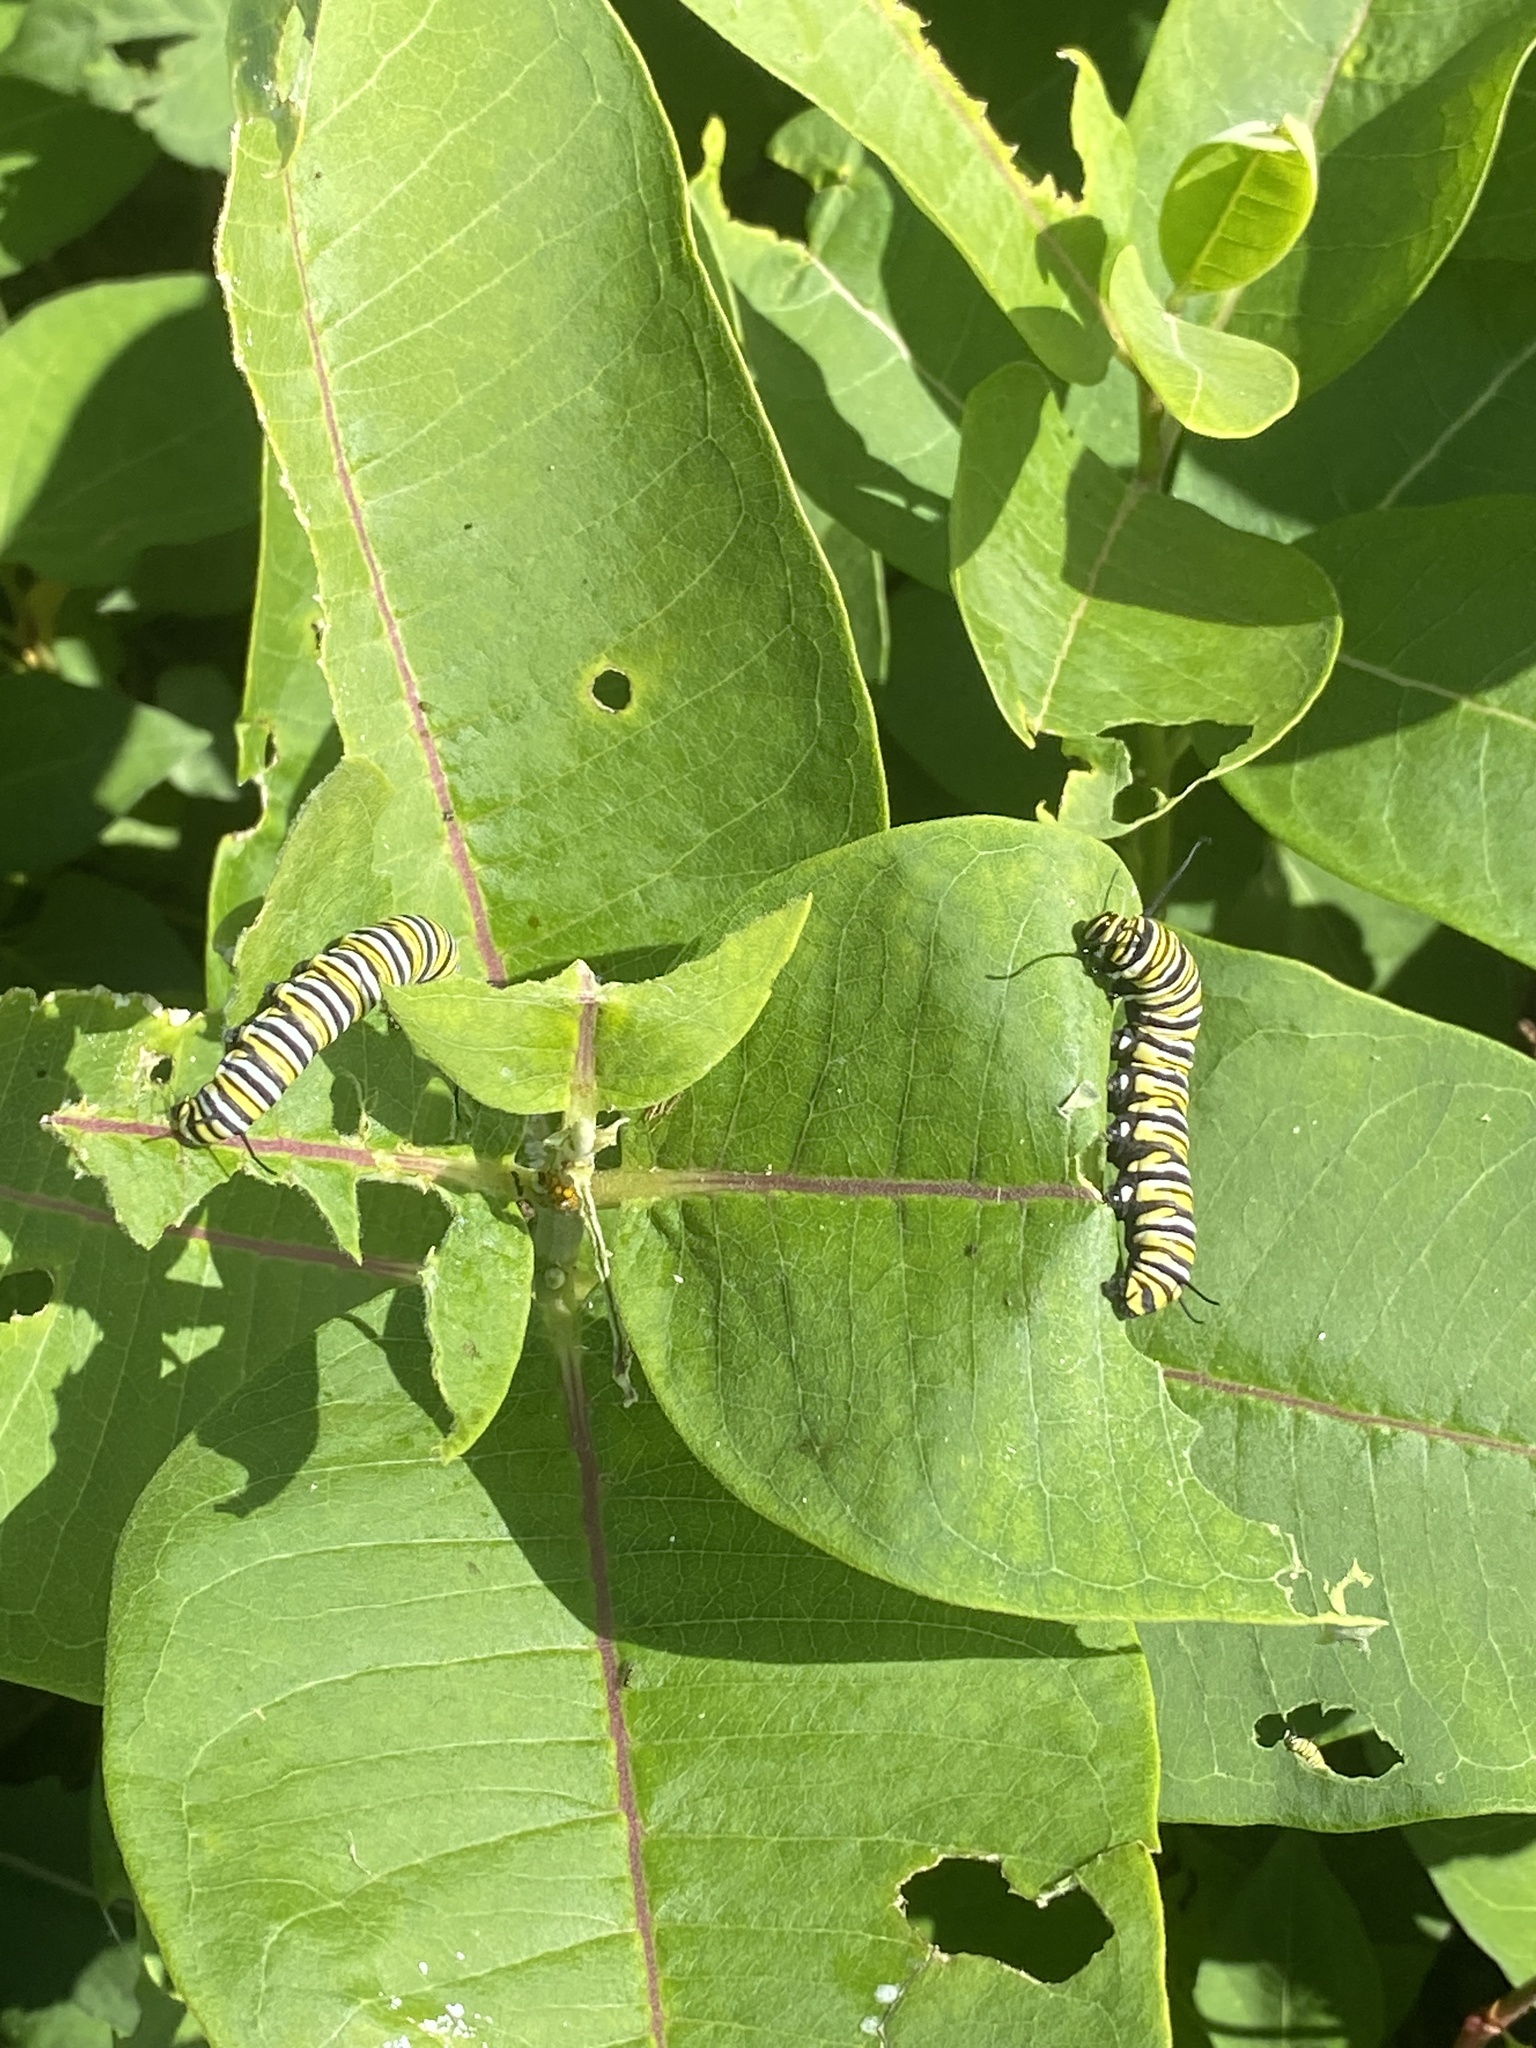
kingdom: Animalia
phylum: Arthropoda
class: Insecta
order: Lepidoptera
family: Nymphalidae
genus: Danaus
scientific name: Danaus plexippus
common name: Monarch
